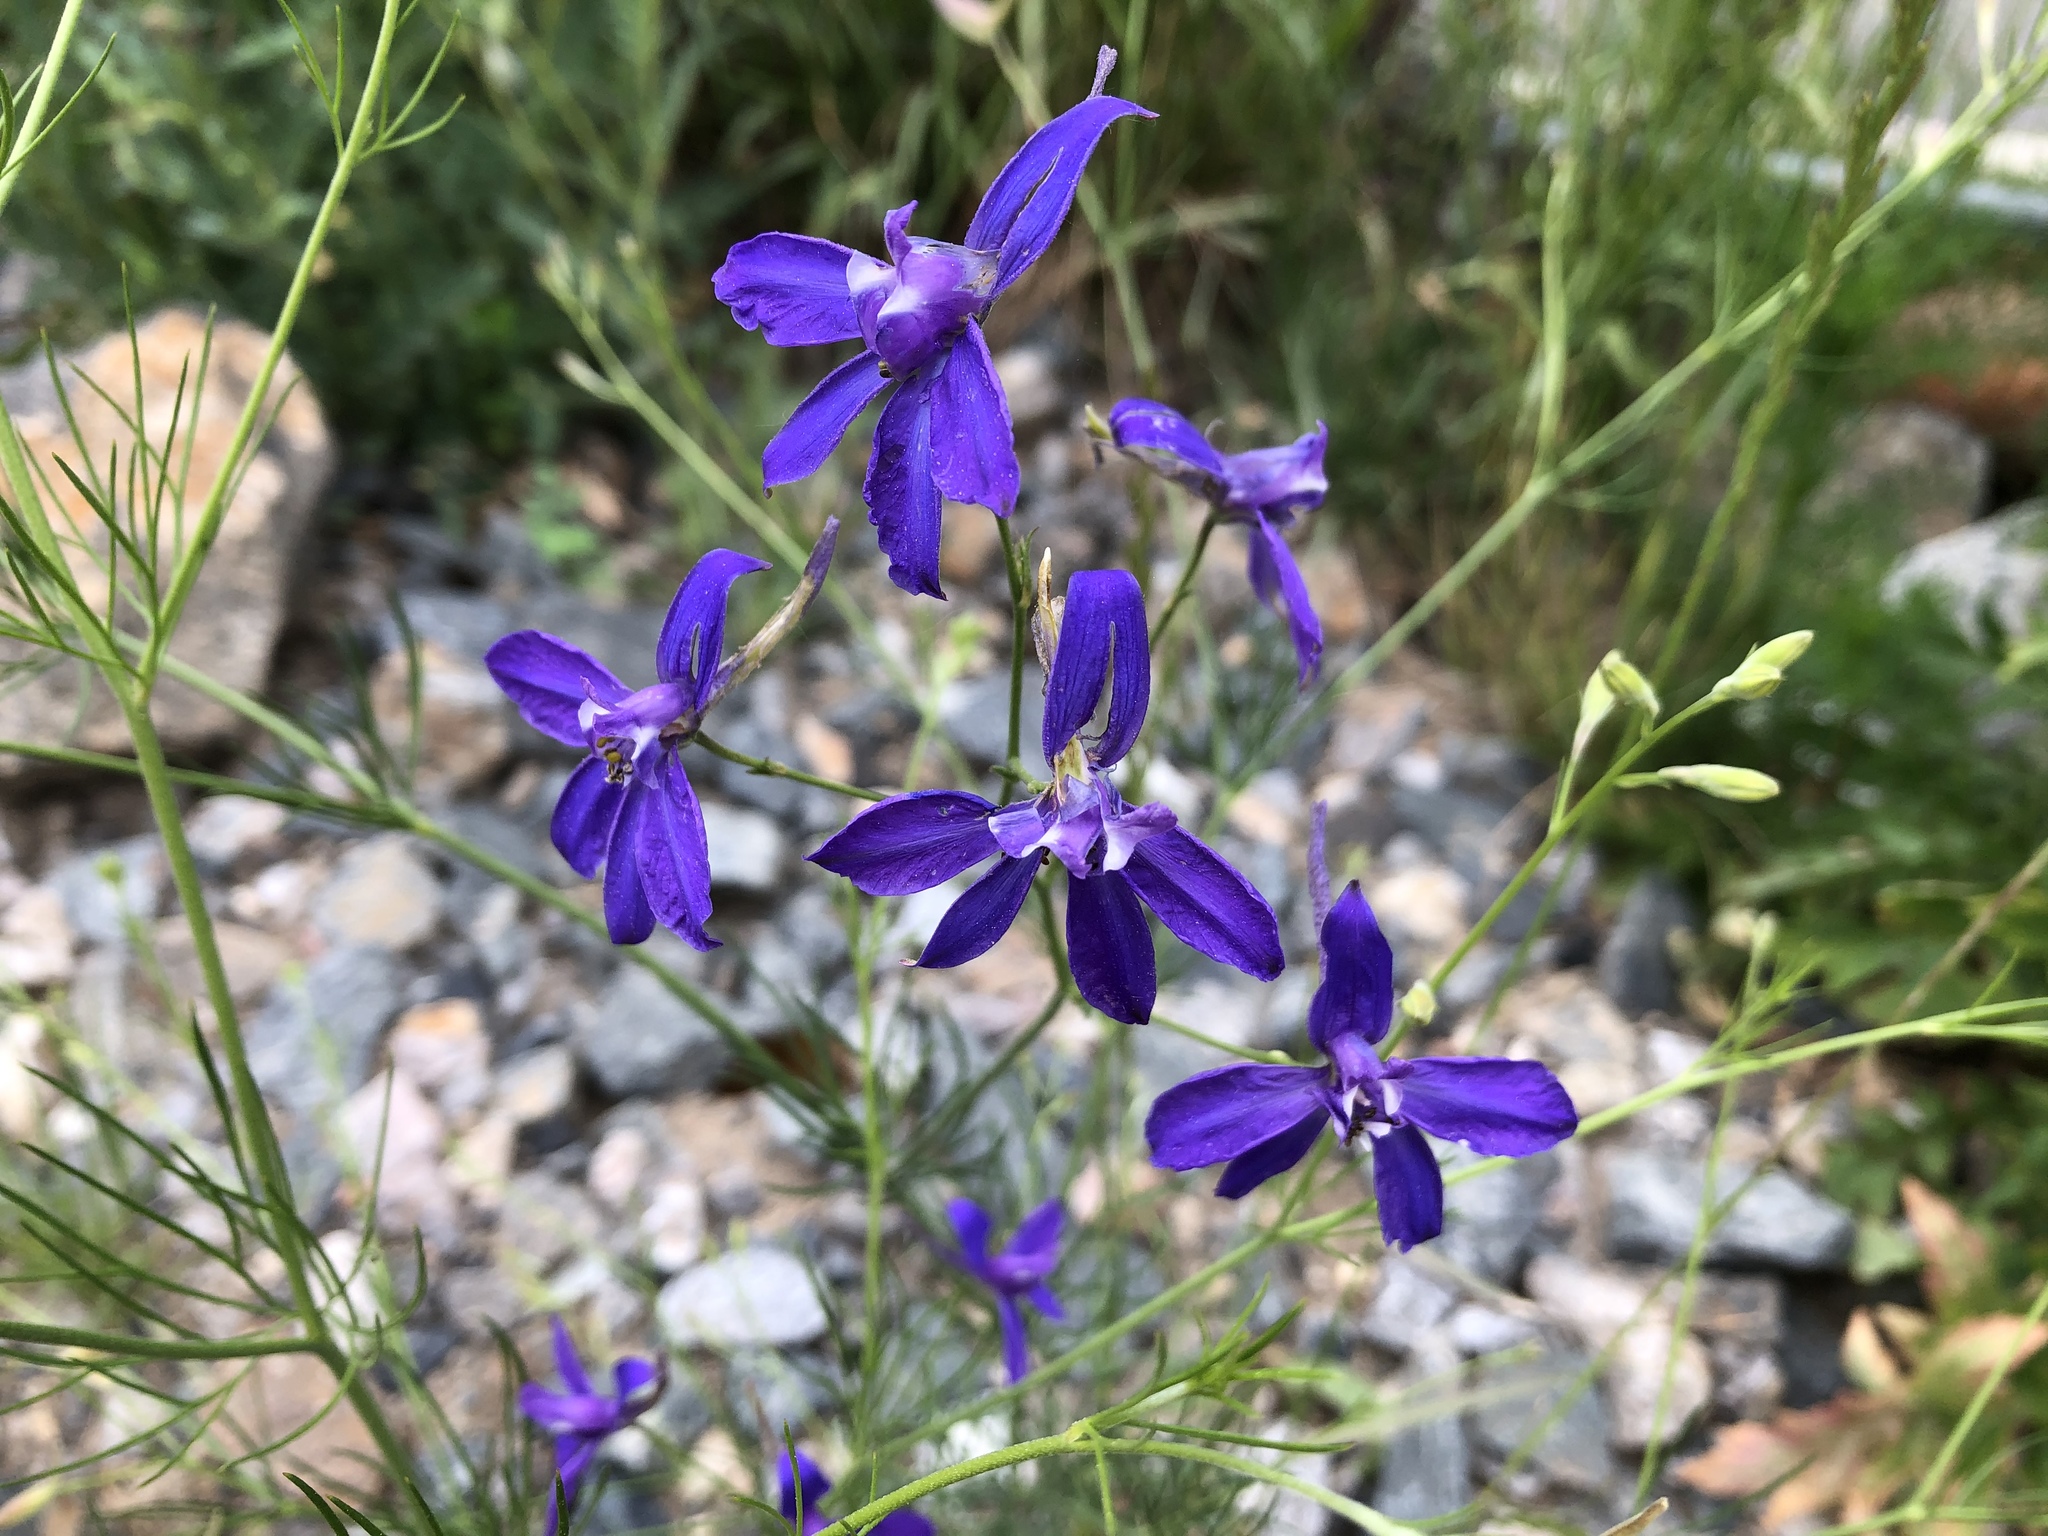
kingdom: Plantae
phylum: Tracheophyta
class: Magnoliopsida
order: Ranunculales
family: Ranunculaceae
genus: Delphinium
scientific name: Delphinium consolida
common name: Branching larkspur
